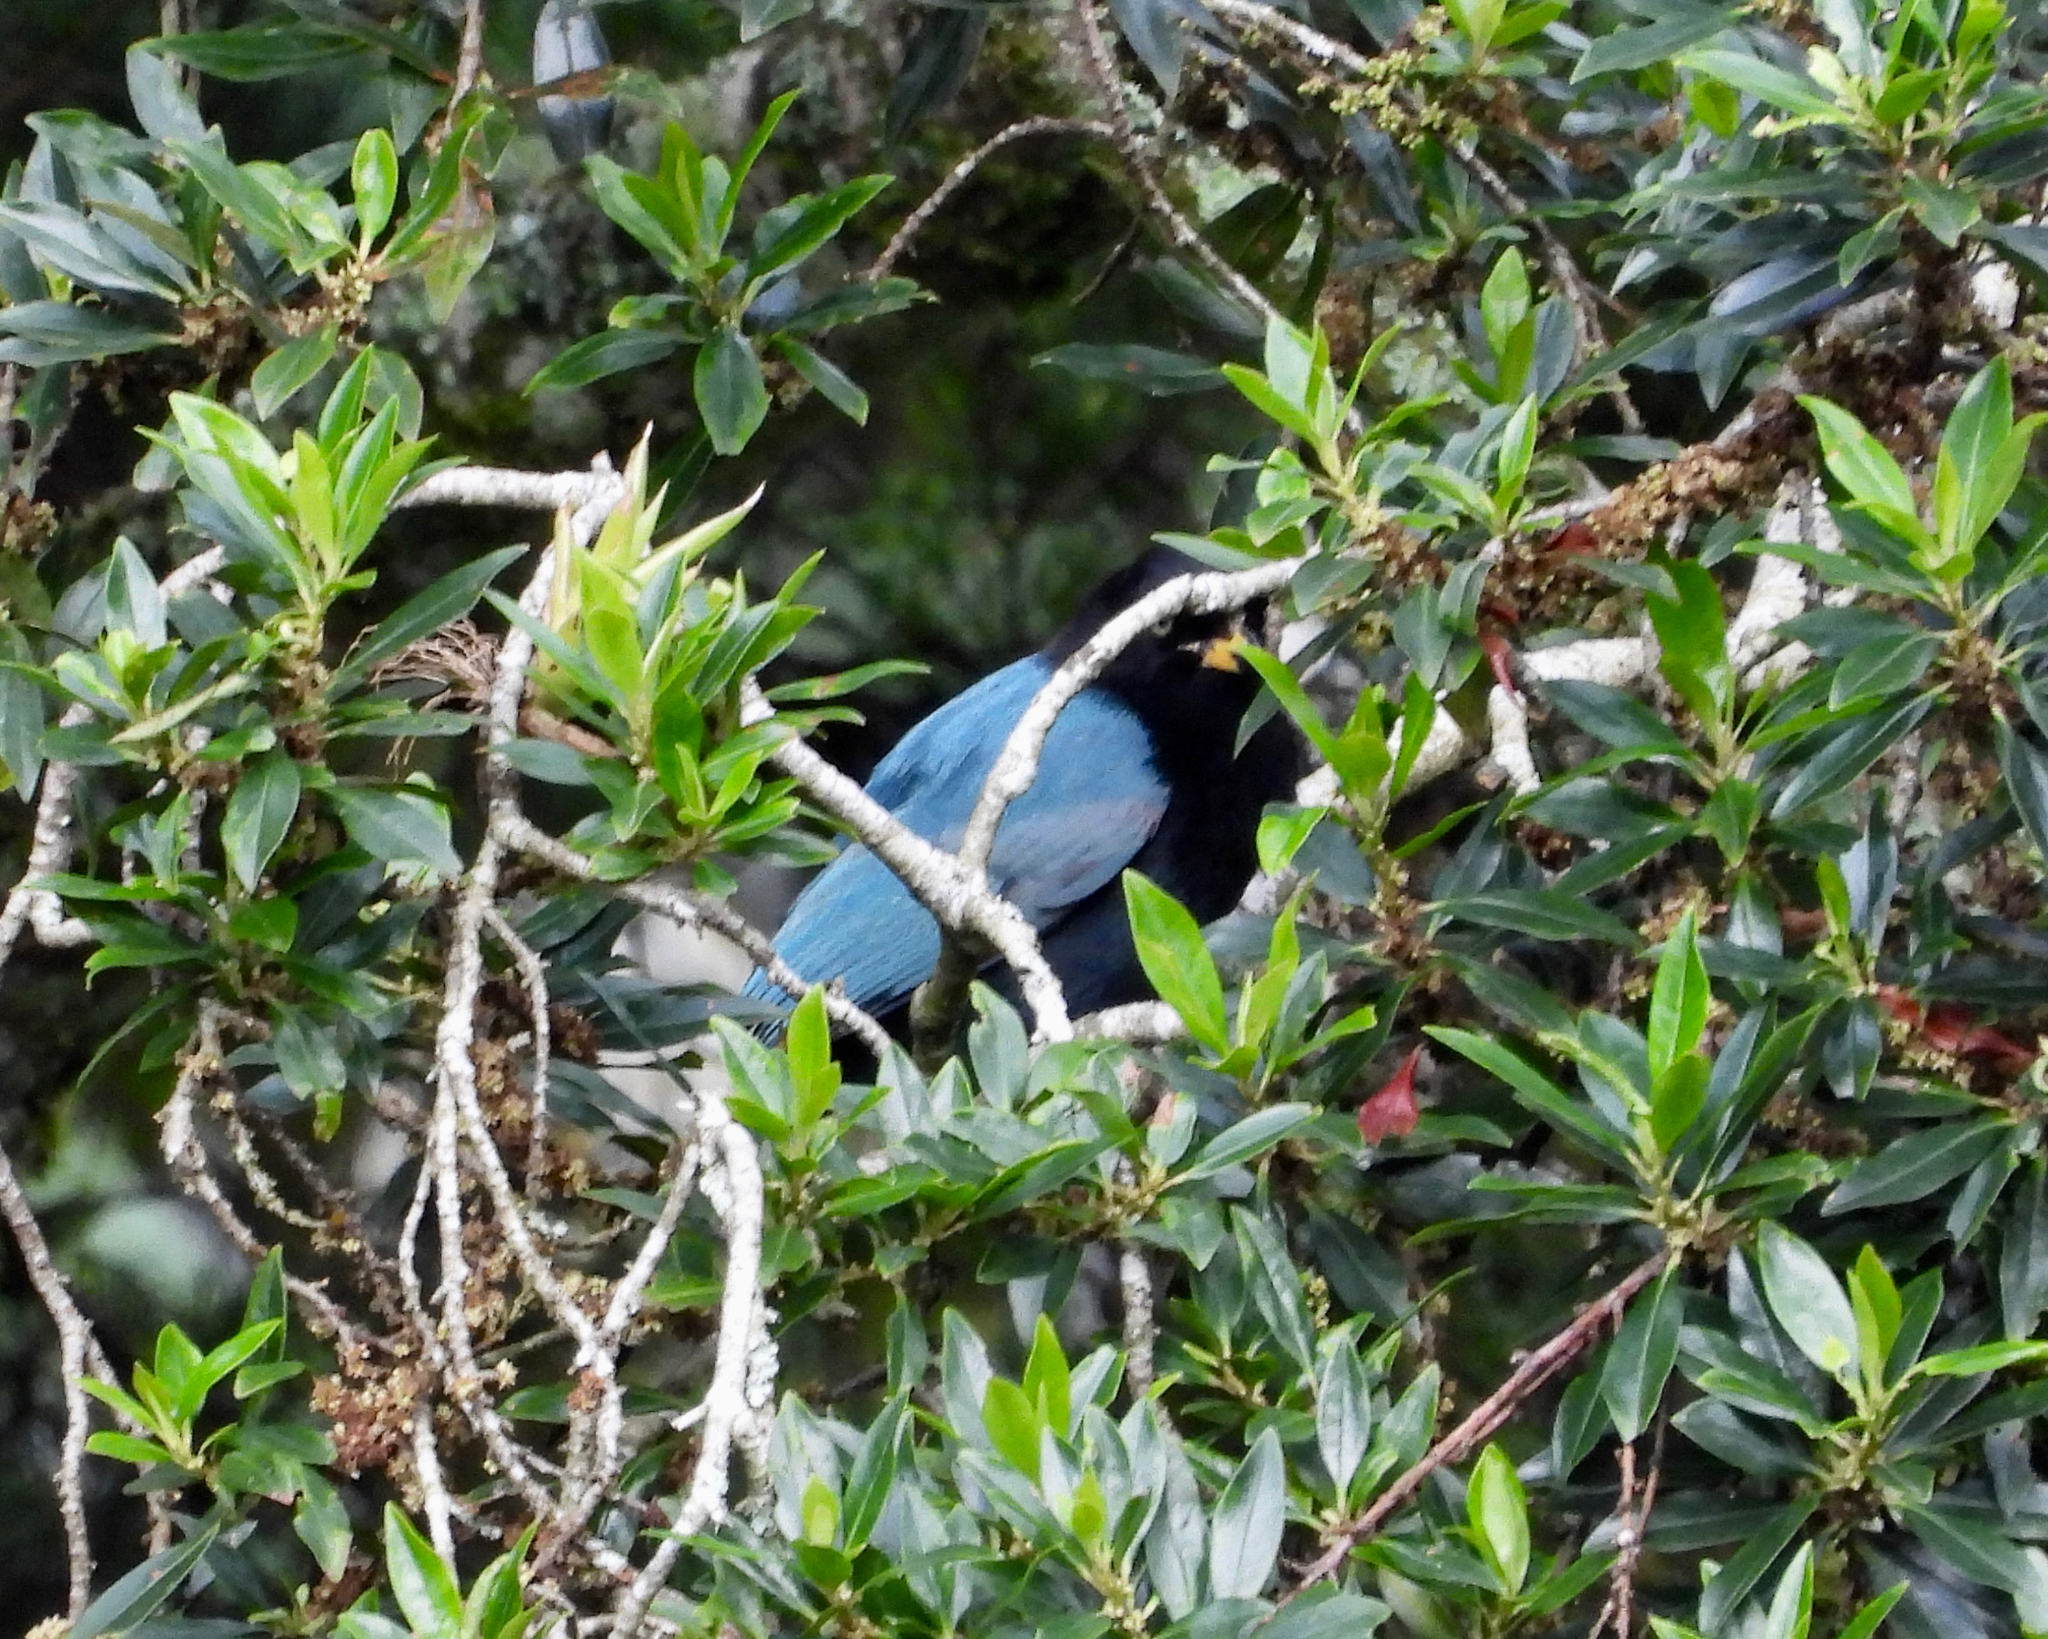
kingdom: Animalia
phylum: Chordata
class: Aves
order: Passeriformes
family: Corvidae
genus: Cyanocorax
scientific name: Cyanocorax melanocyaneus
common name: Bushy-crested jay
